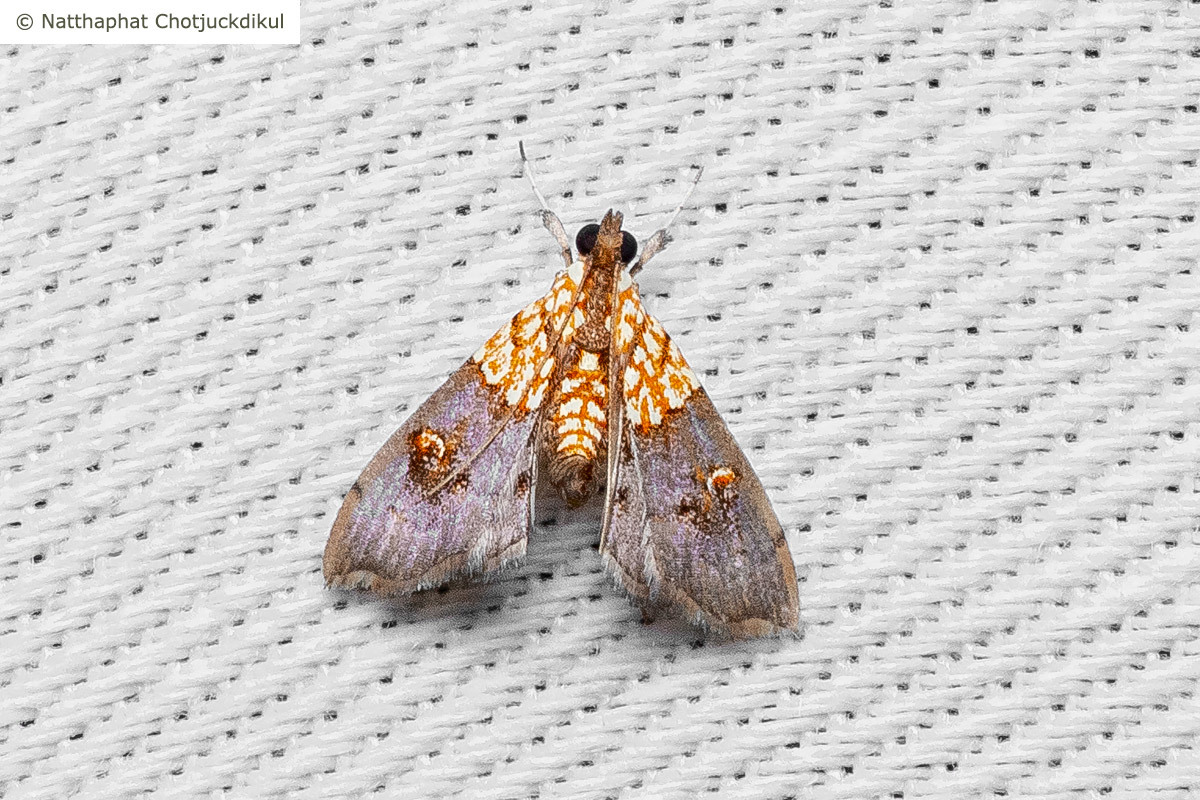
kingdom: Animalia
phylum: Arthropoda
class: Insecta
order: Lepidoptera
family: Crambidae
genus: Agrotera
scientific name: Agrotera lienpingialis
